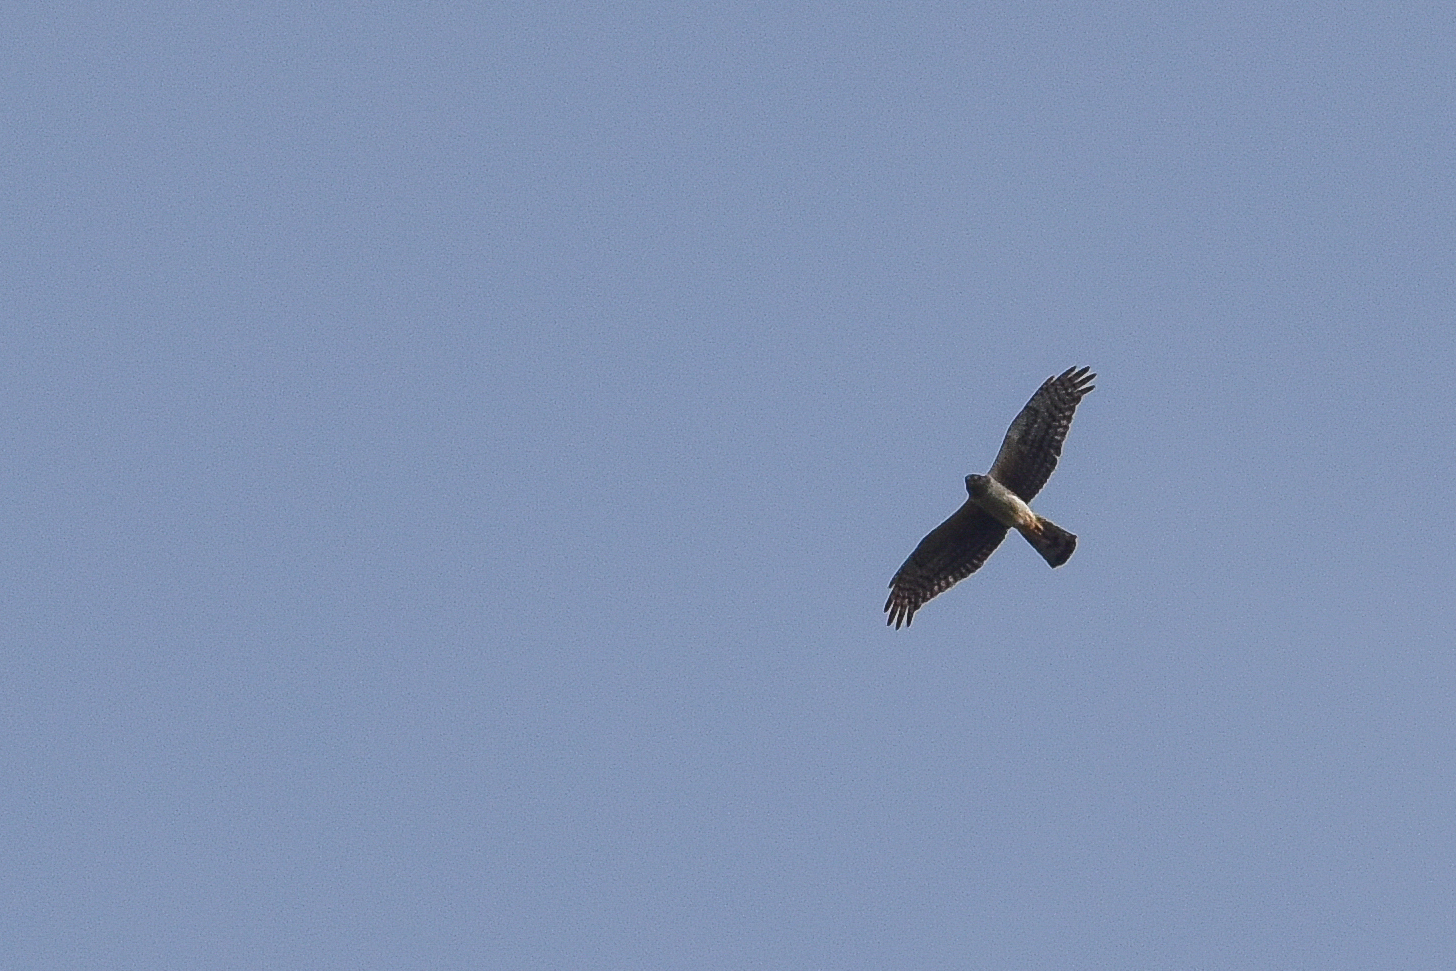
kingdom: Animalia
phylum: Chordata
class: Aves
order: Accipitriformes
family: Accipitridae
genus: Circus
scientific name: Circus cyaneus
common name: Hen harrier
